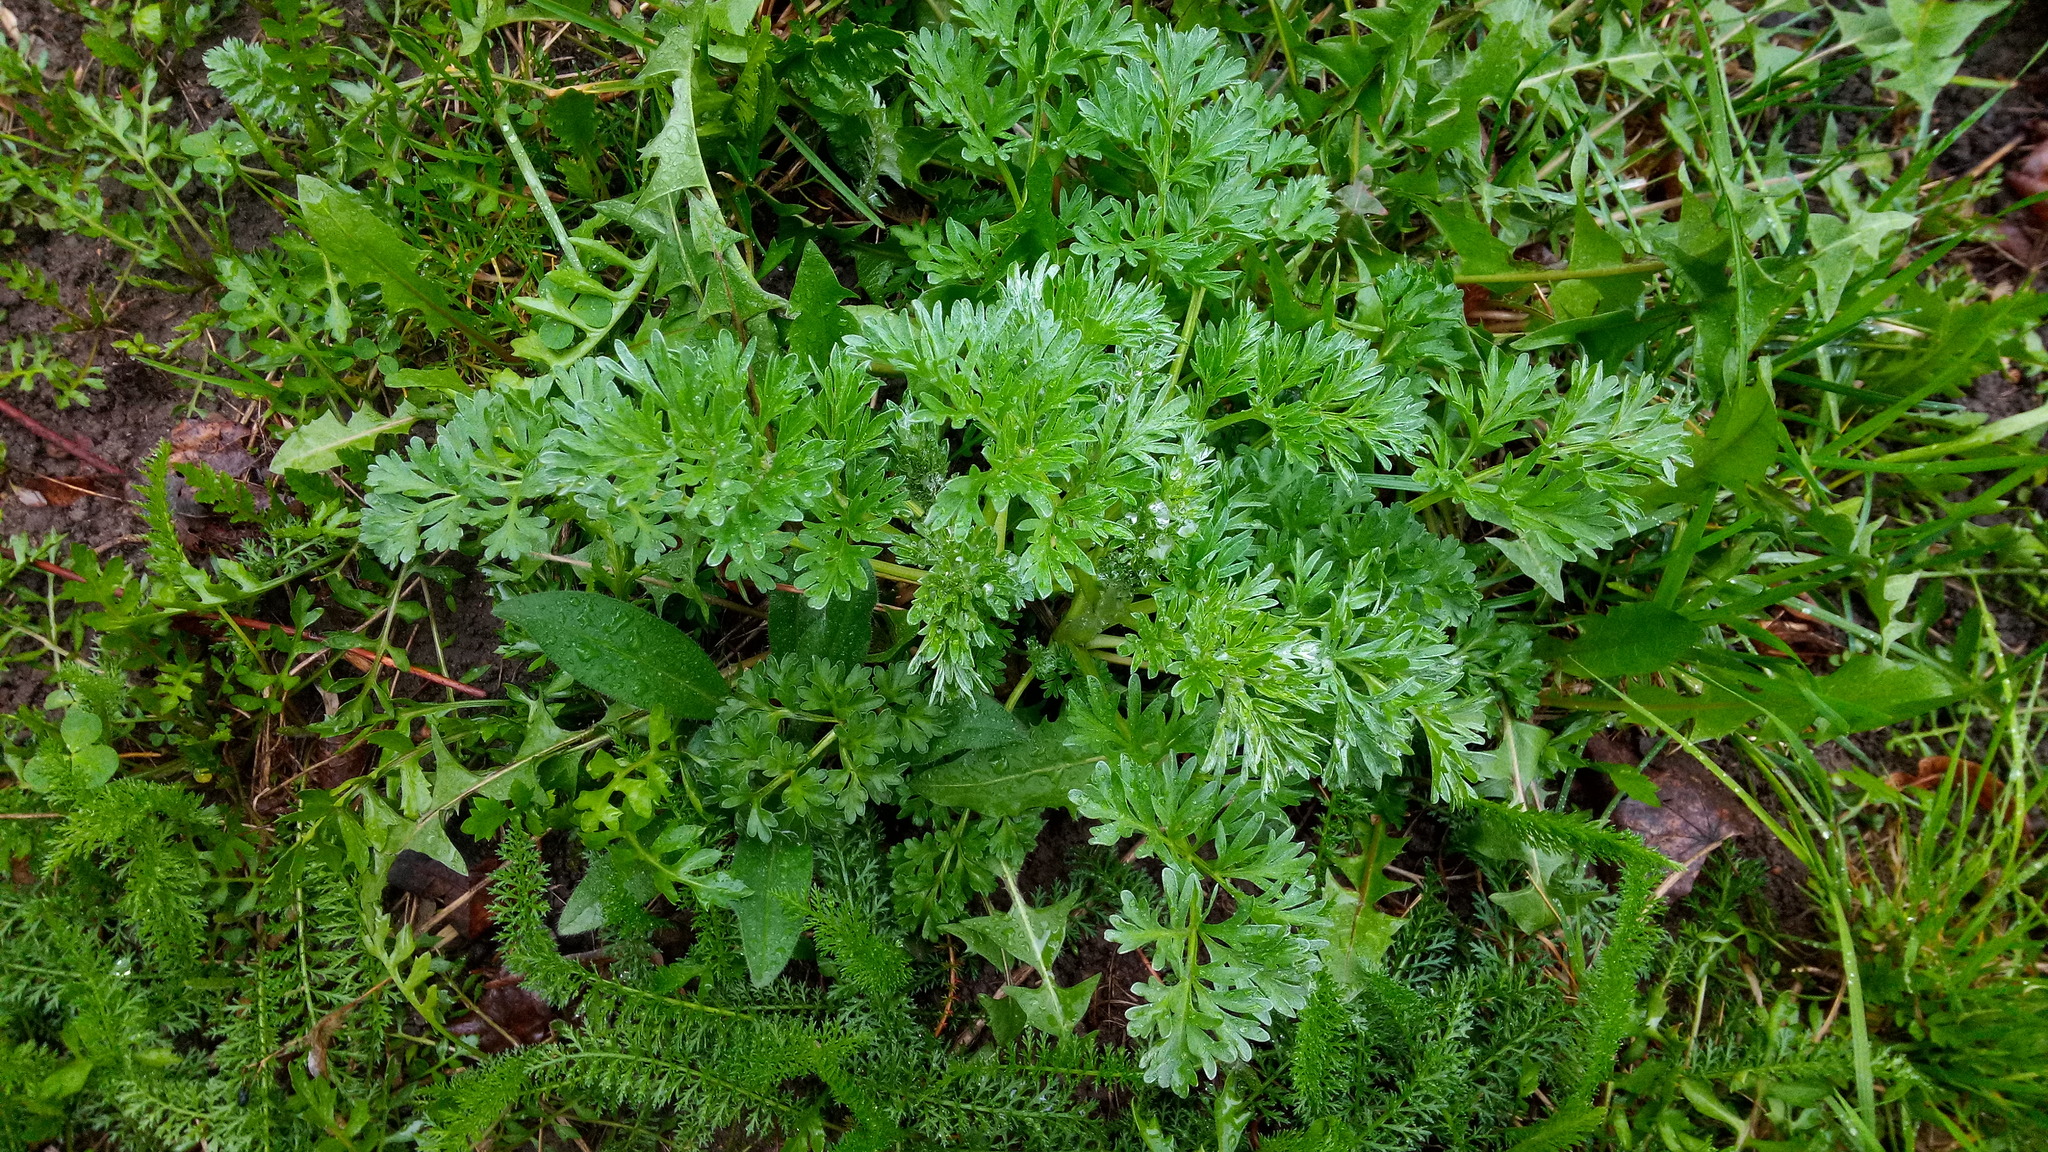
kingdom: Plantae
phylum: Tracheophyta
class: Magnoliopsida
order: Asterales
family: Asteraceae
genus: Artemisia
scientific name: Artemisia absinthium
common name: Wormwood
